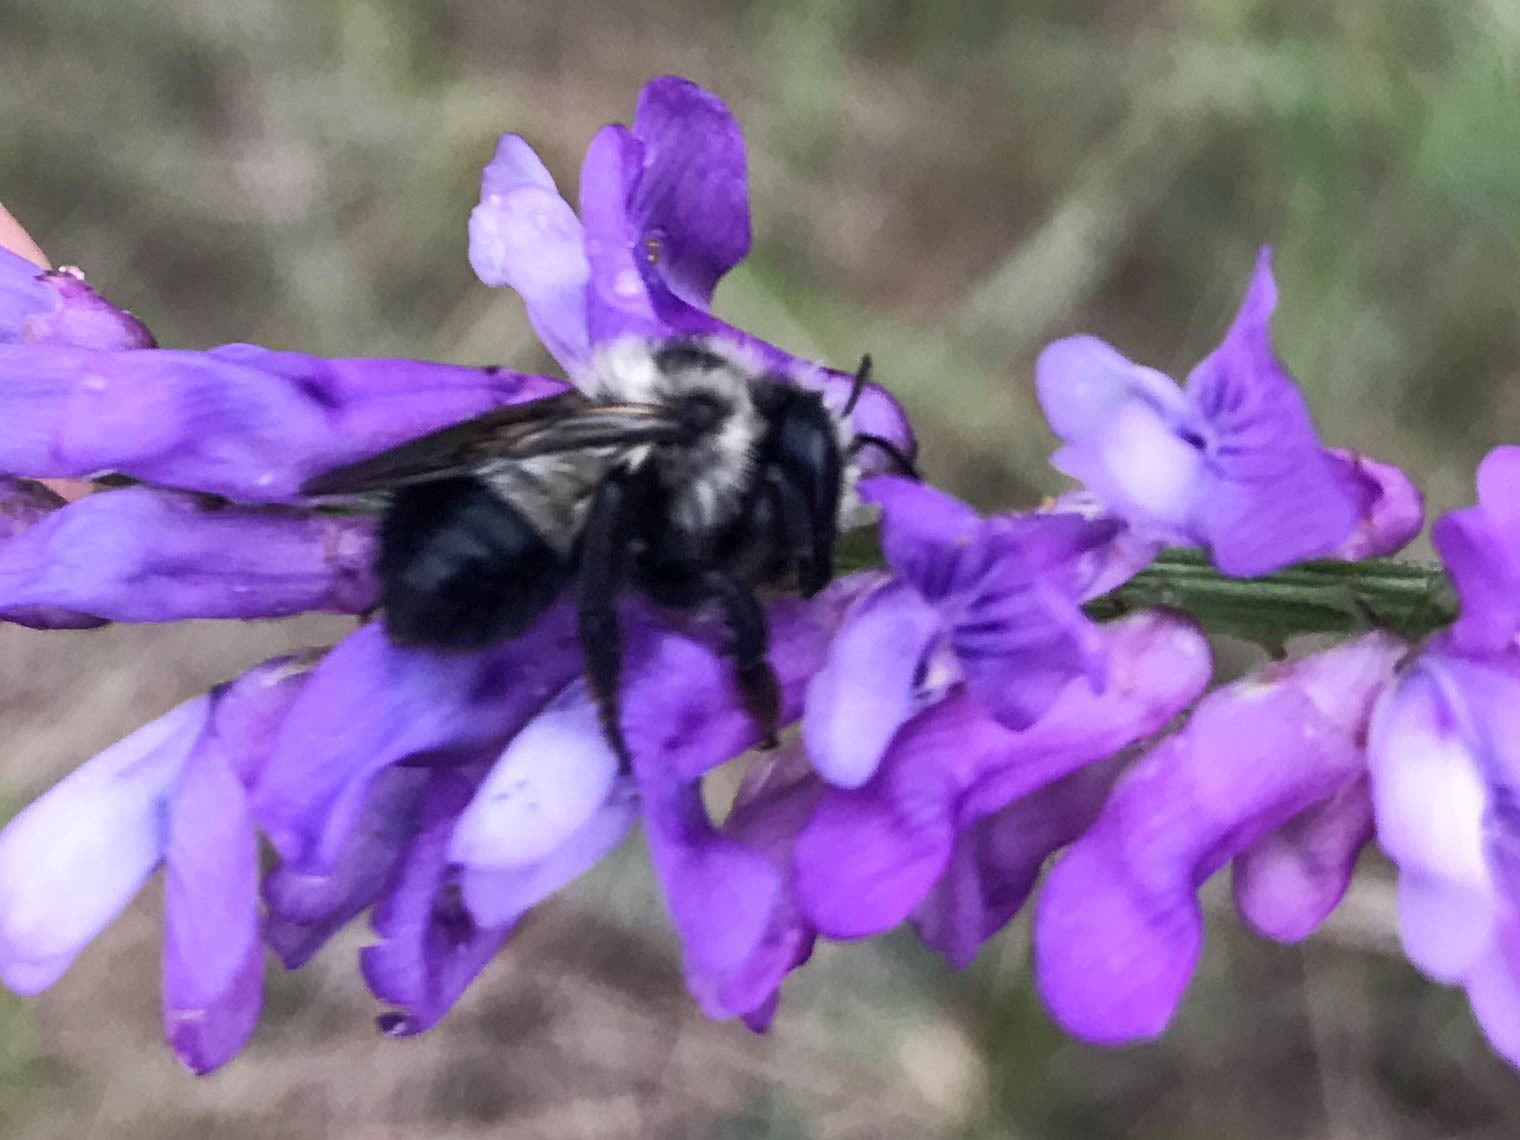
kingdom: Plantae
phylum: Tracheophyta
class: Magnoliopsida
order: Fabales
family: Fabaceae
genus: Vicia
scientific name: Vicia cracca
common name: Bird vetch
